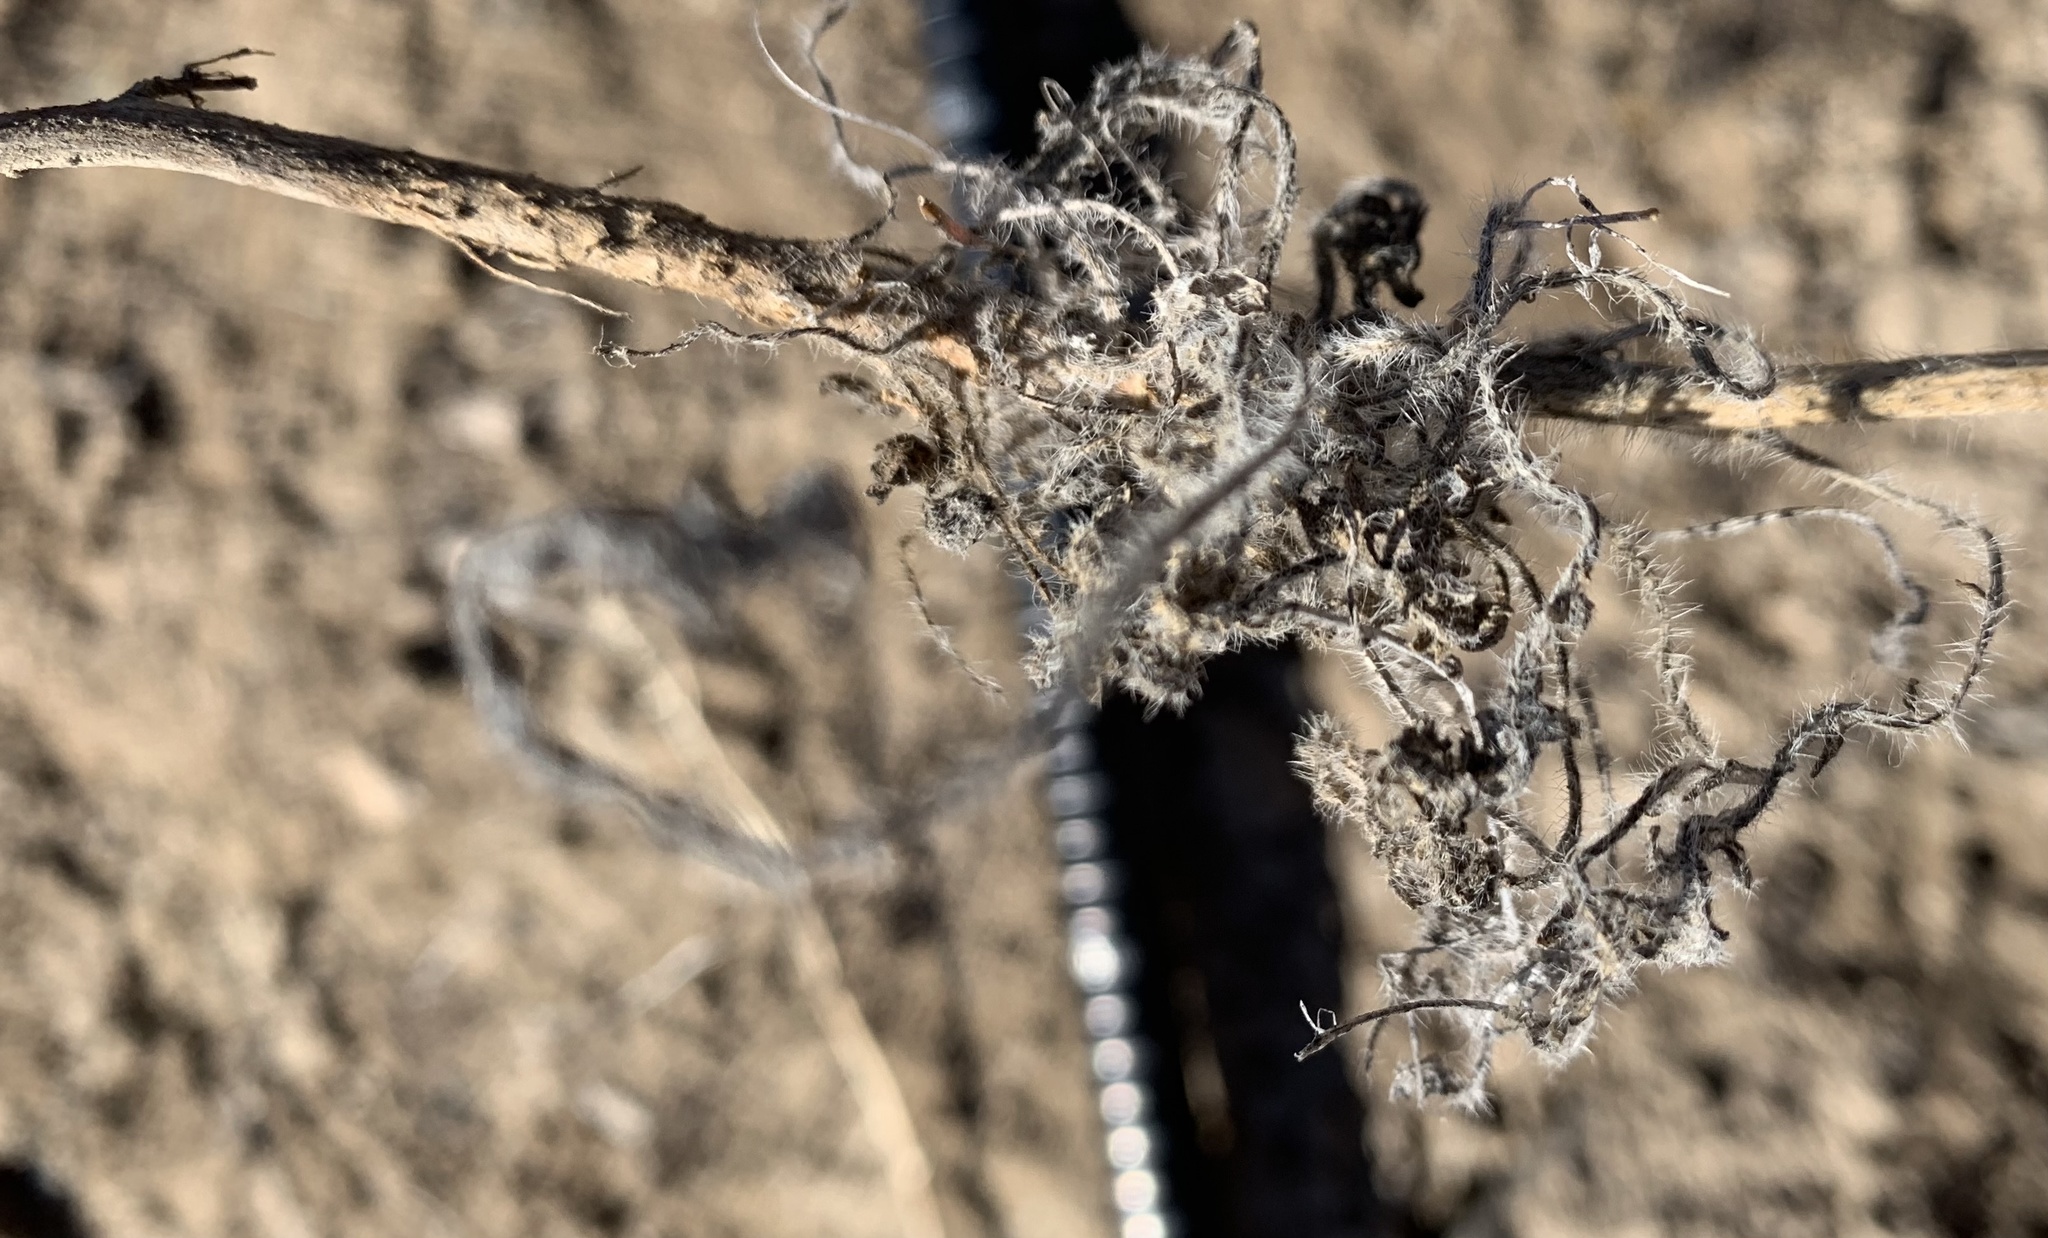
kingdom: Plantae
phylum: Tracheophyta
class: Magnoliopsida
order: Brassicales
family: Brassicaceae
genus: Streptanthus
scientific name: Streptanthus pilosus
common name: Chocolate drops
